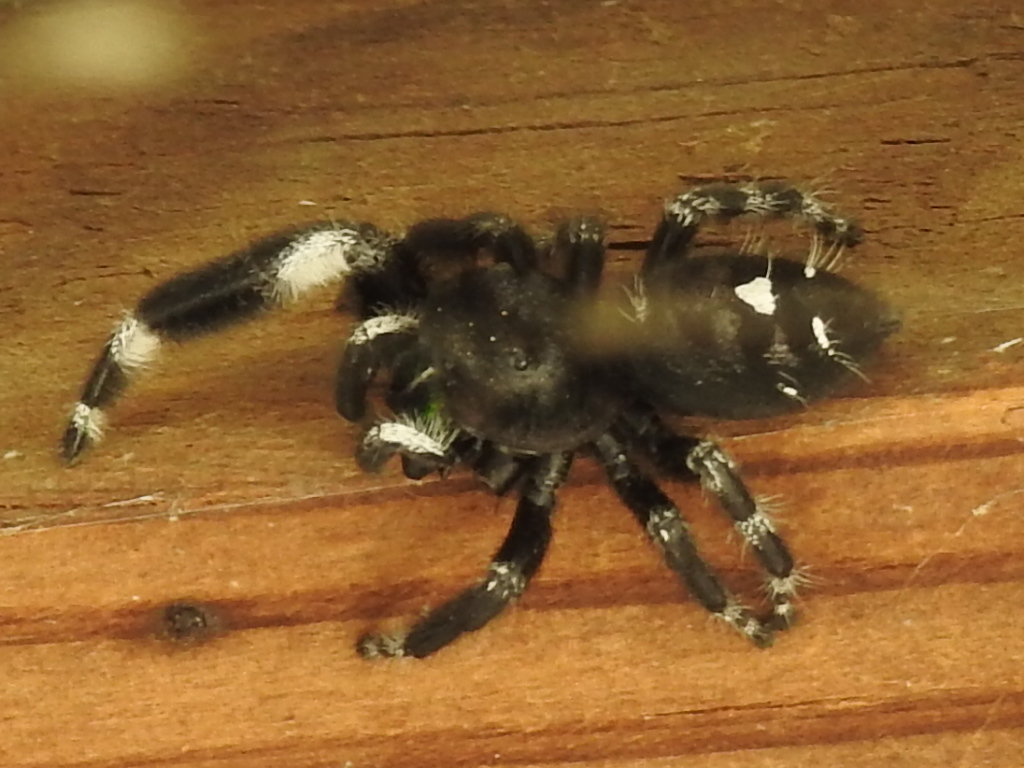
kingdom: Animalia
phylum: Arthropoda
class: Arachnida
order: Araneae
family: Salticidae
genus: Phidippus
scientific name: Phidippus audax
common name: Bold jumper
